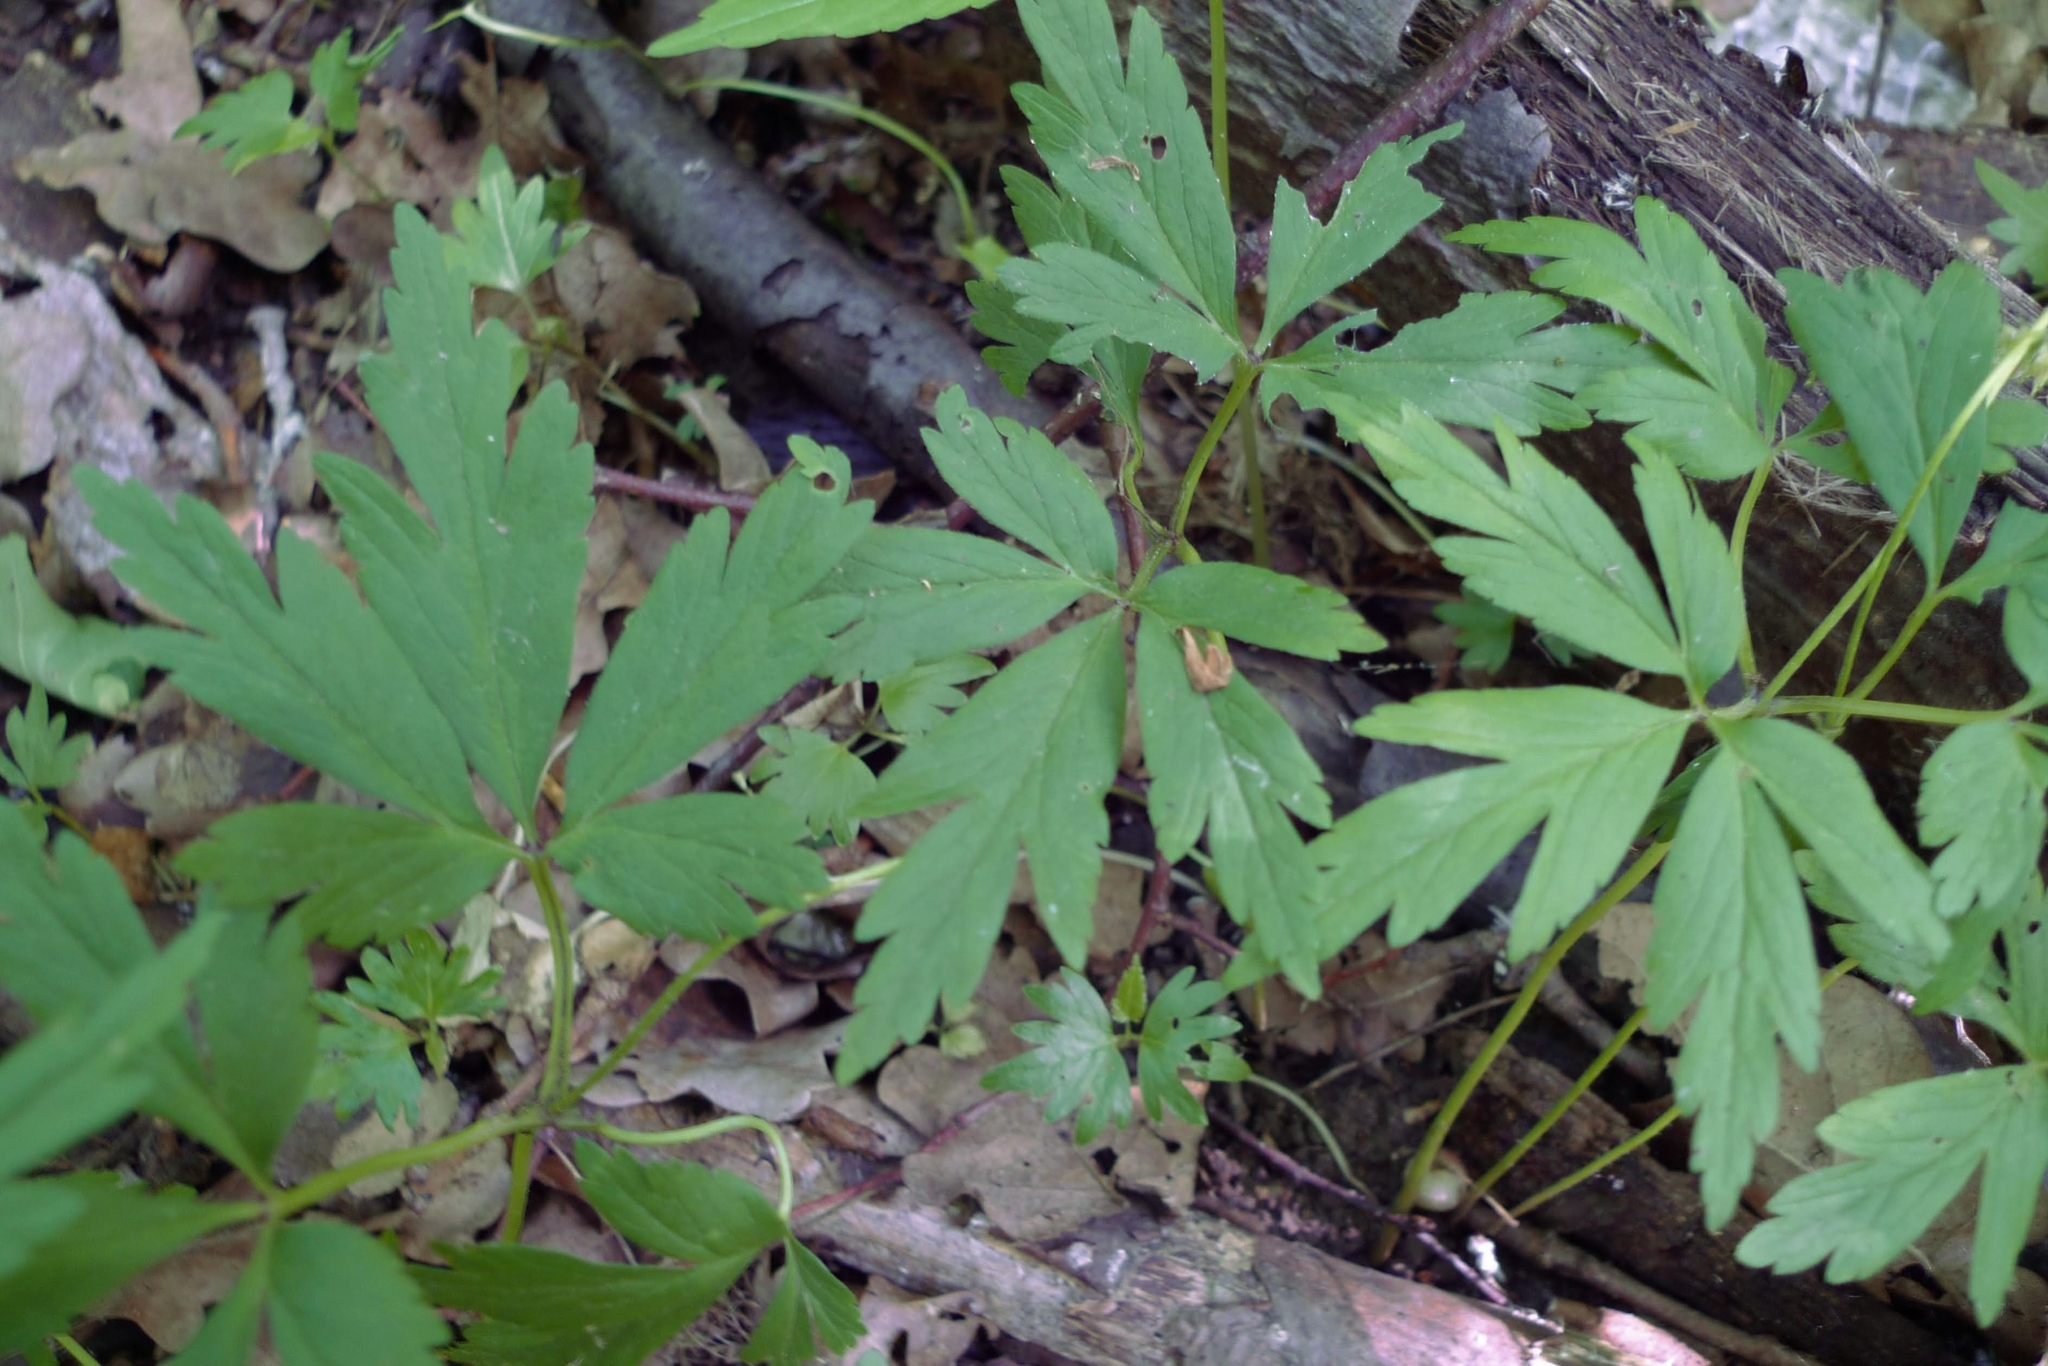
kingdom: Plantae
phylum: Tracheophyta
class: Magnoliopsida
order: Ranunculales
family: Ranunculaceae
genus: Anemone
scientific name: Anemone nemorosa
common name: Wood anemone
